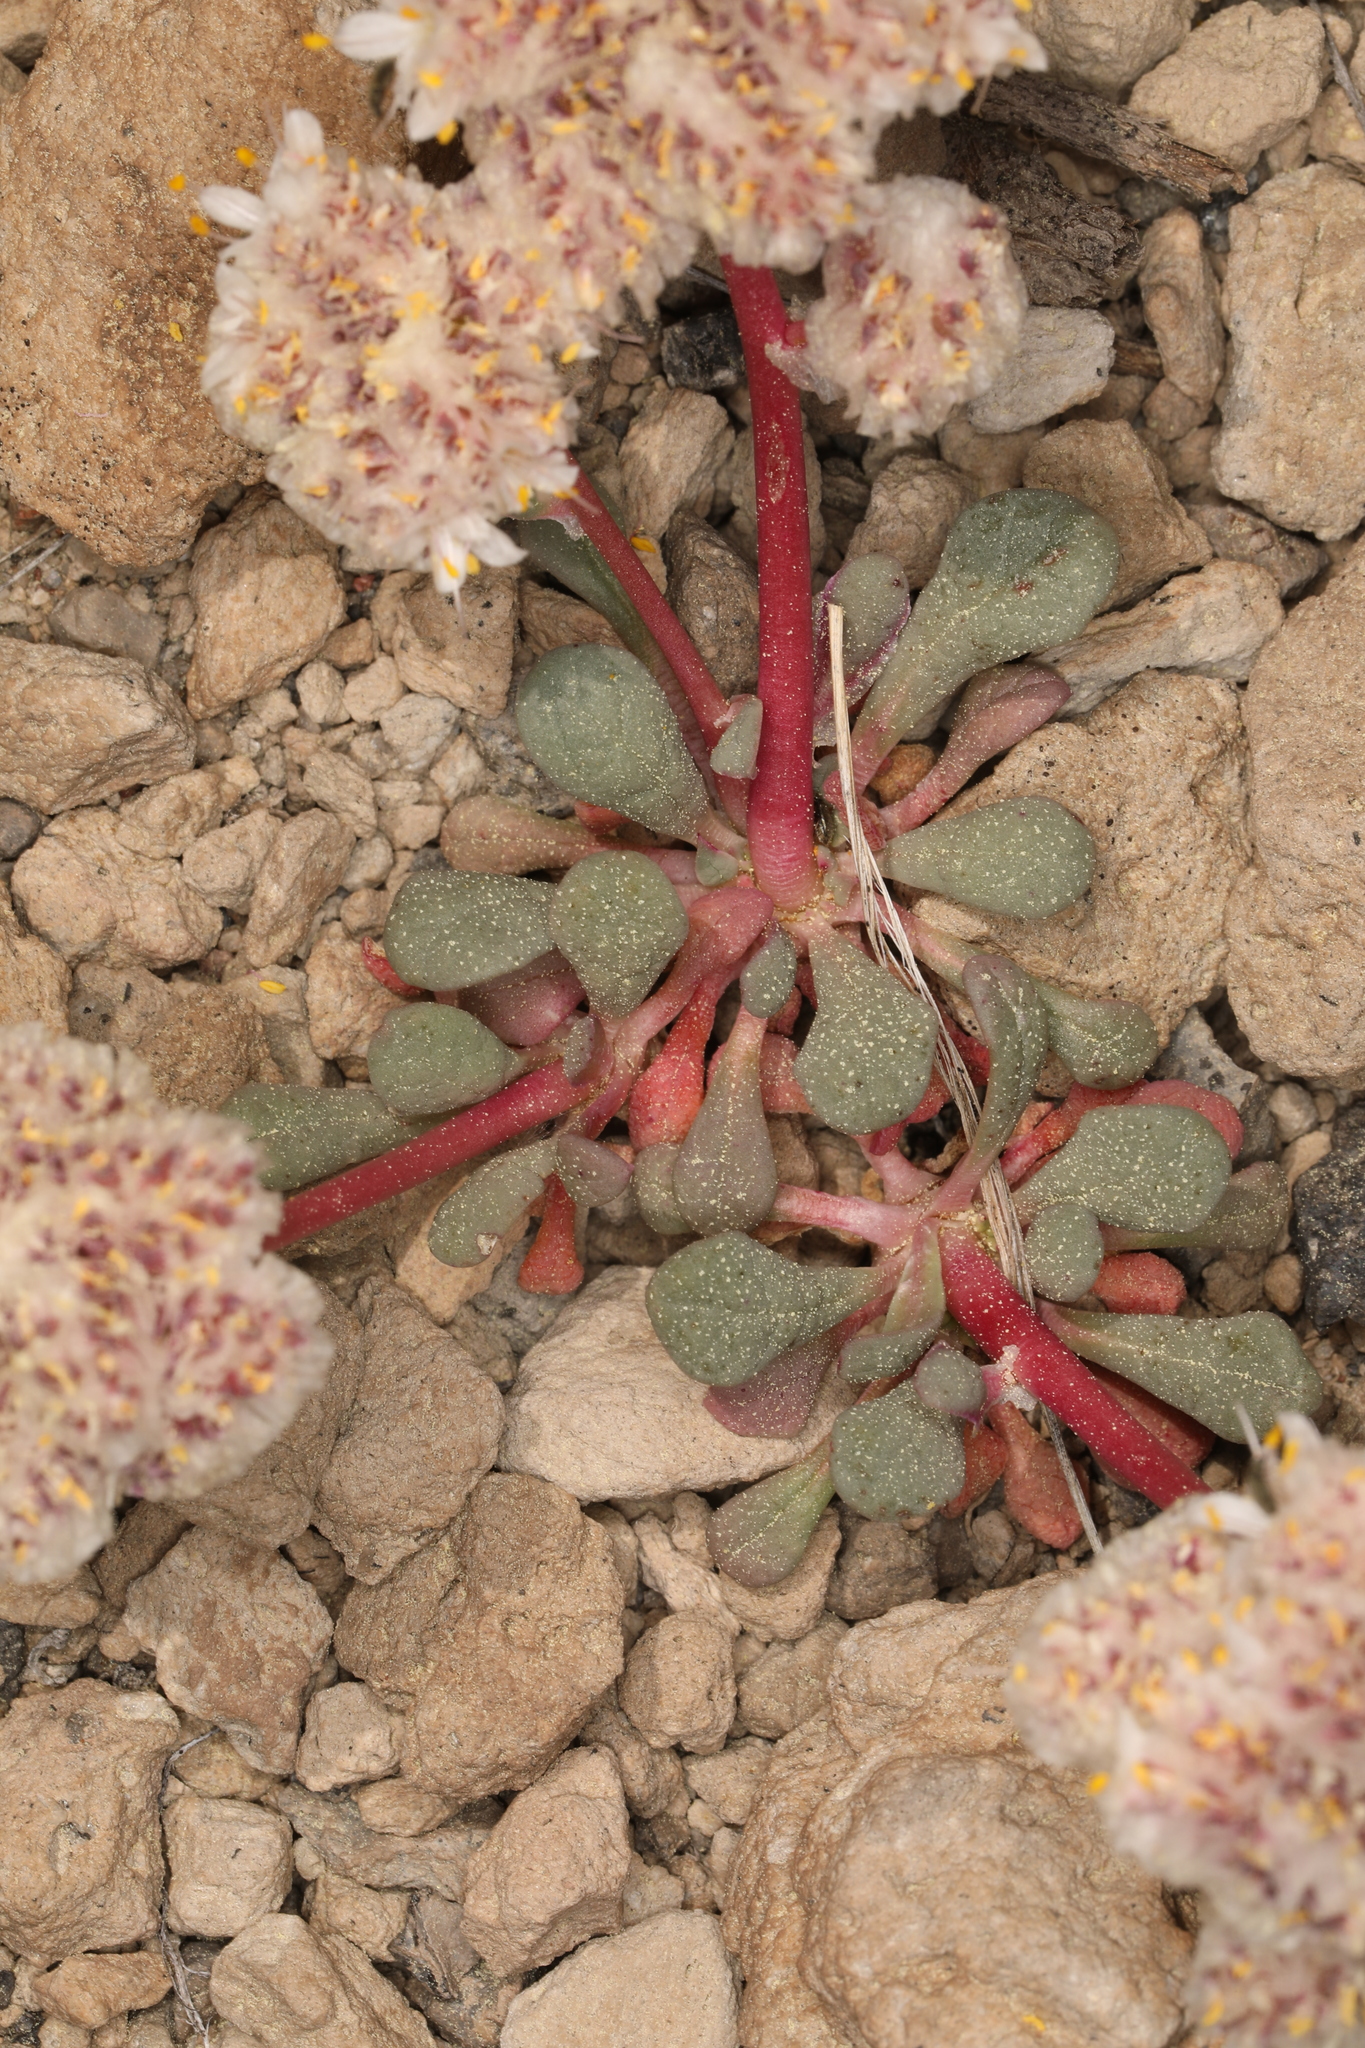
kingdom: Plantae
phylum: Tracheophyta
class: Magnoliopsida
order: Caryophyllales
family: Montiaceae
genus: Calyptridium
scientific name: Calyptridium umbellatum
